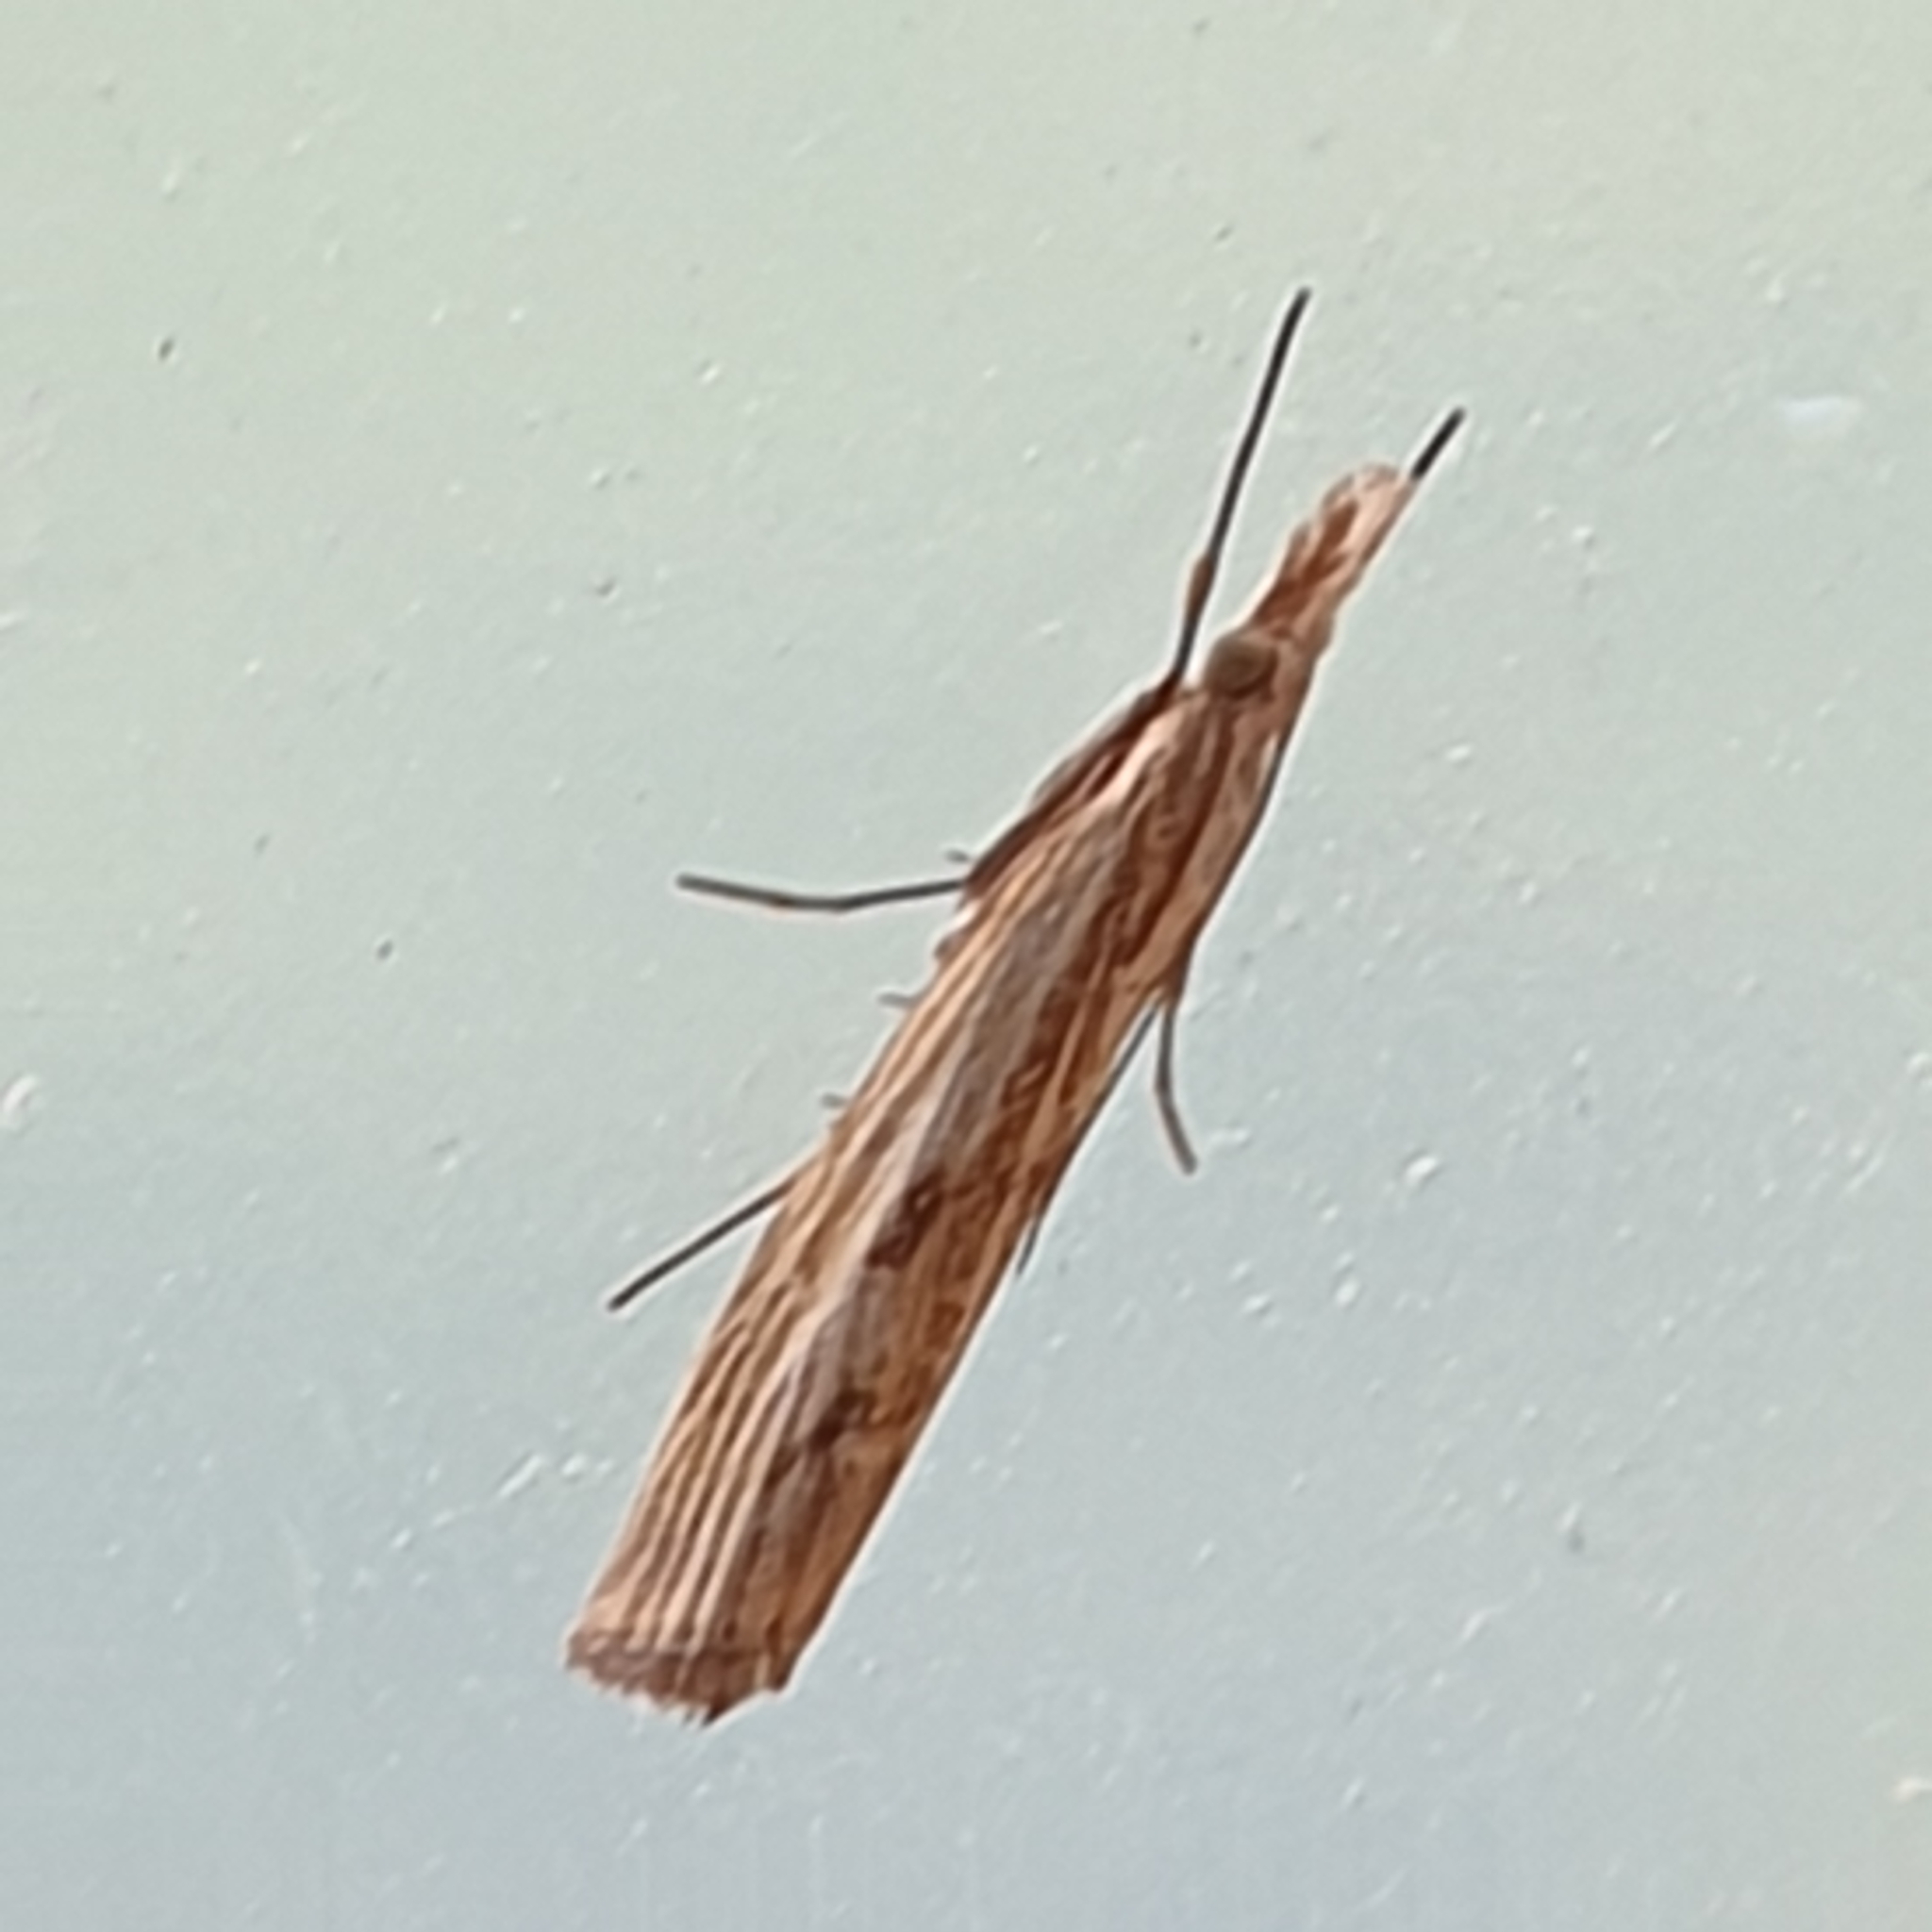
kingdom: Animalia
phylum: Arthropoda
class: Insecta
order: Lepidoptera
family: Crambidae
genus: Agriphila
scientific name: Agriphila inquinatella
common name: Barred grass-veneer
